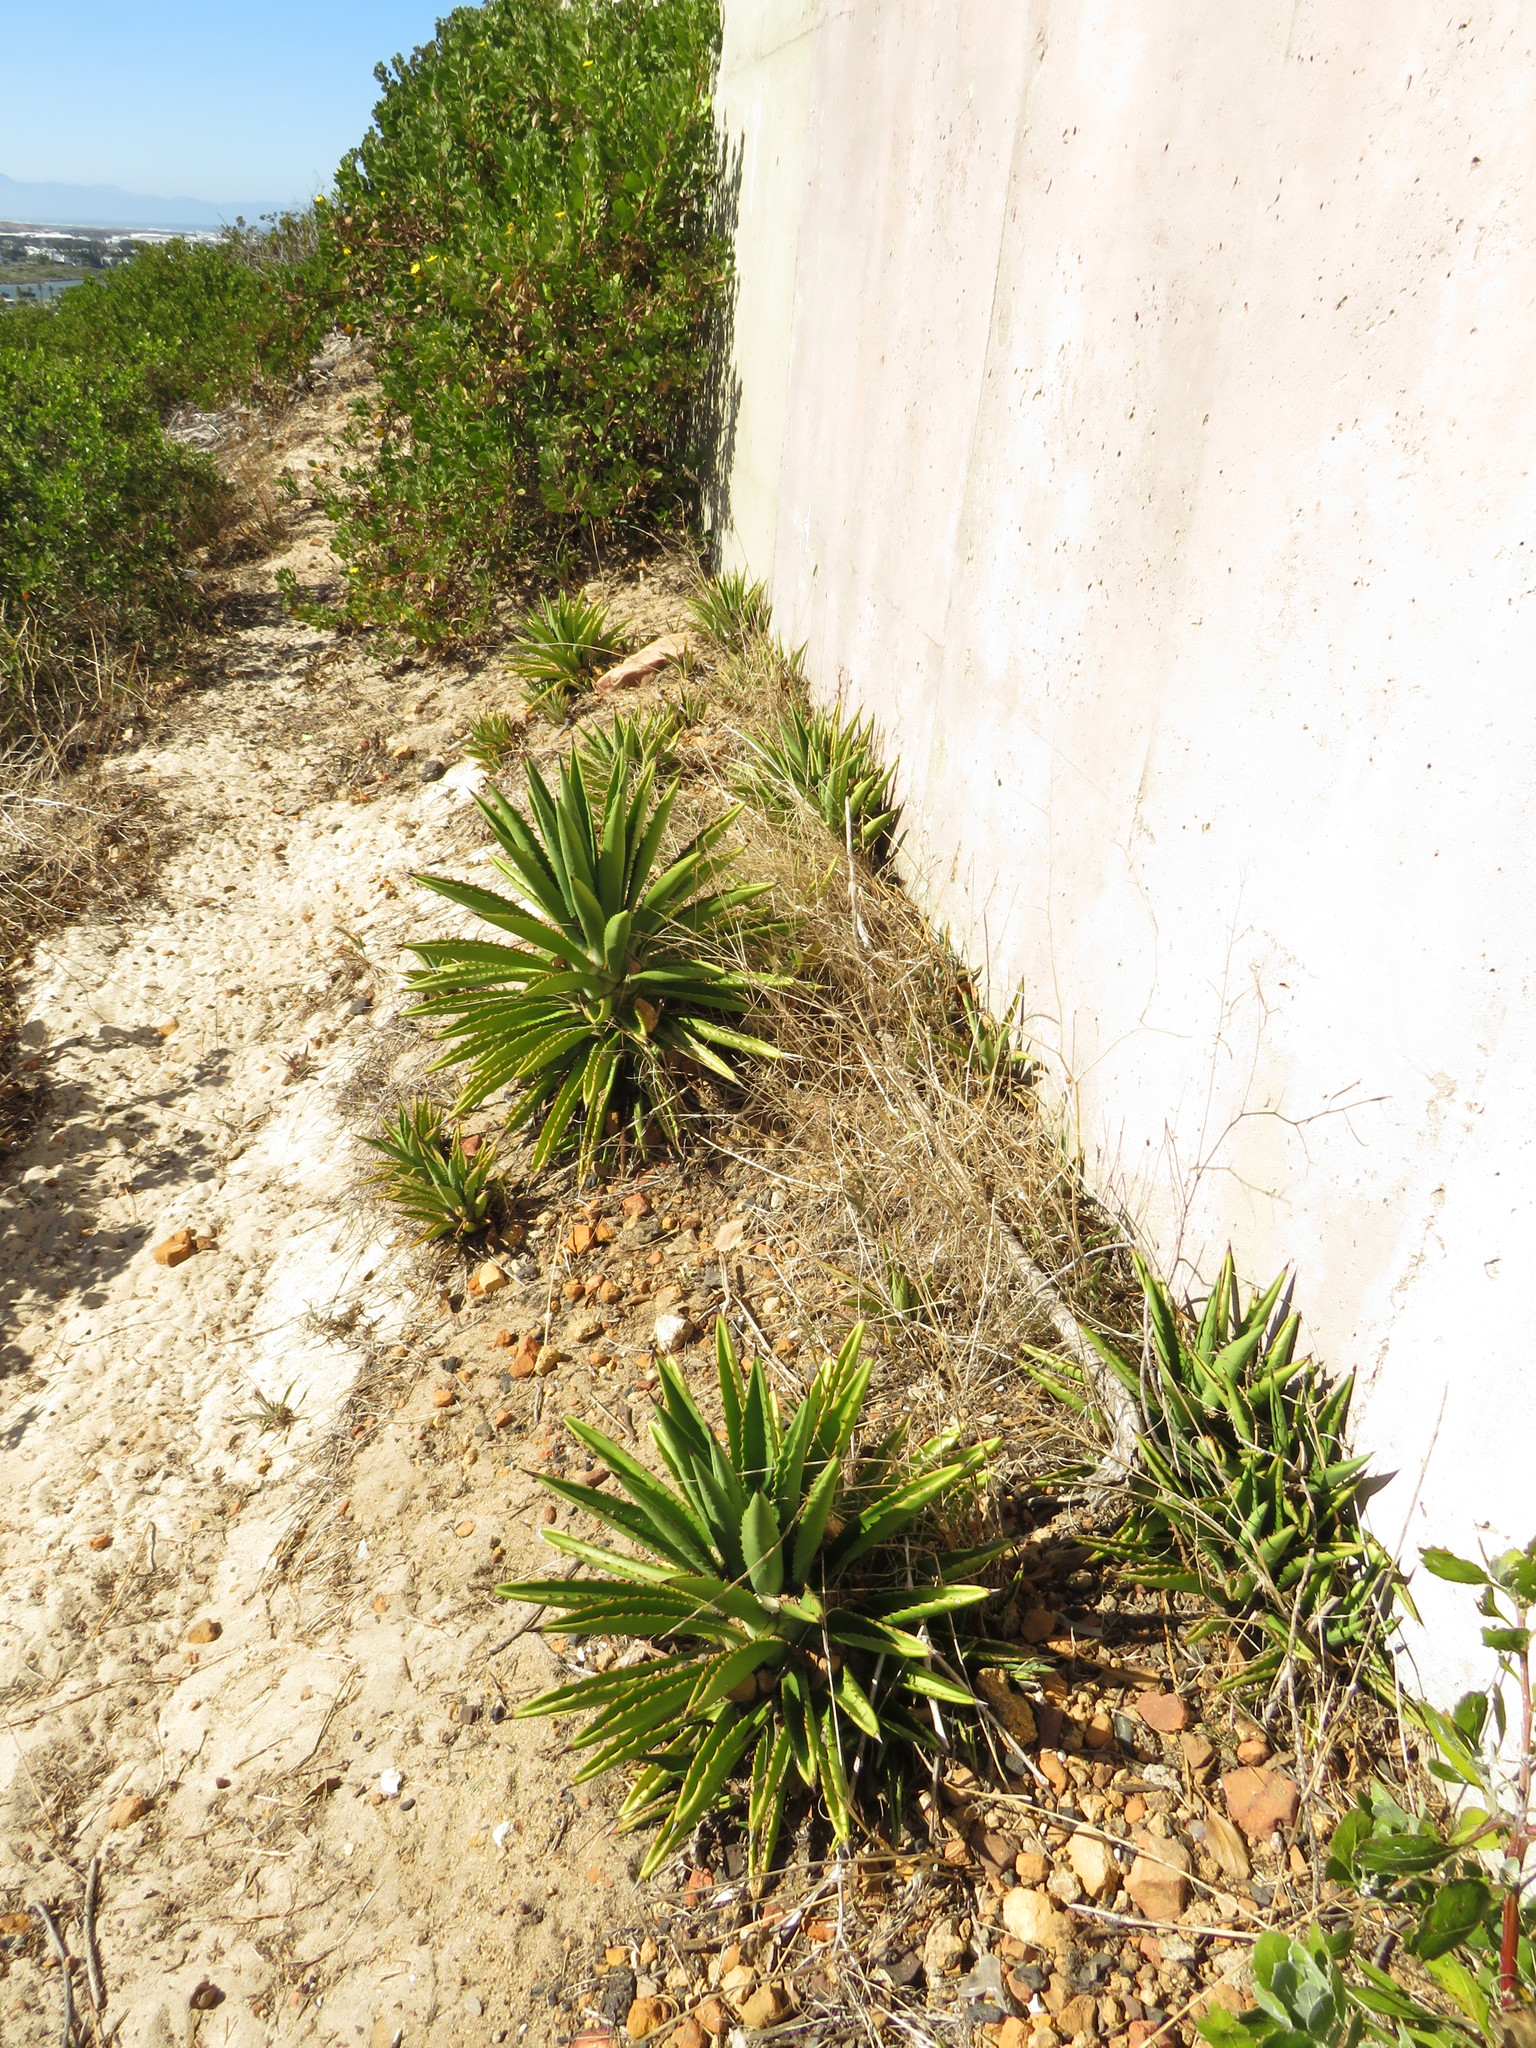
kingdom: Plantae
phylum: Tracheophyta
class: Liliopsida
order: Asparagales
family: Asparagaceae
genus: Agave
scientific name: Agave karwinskii
